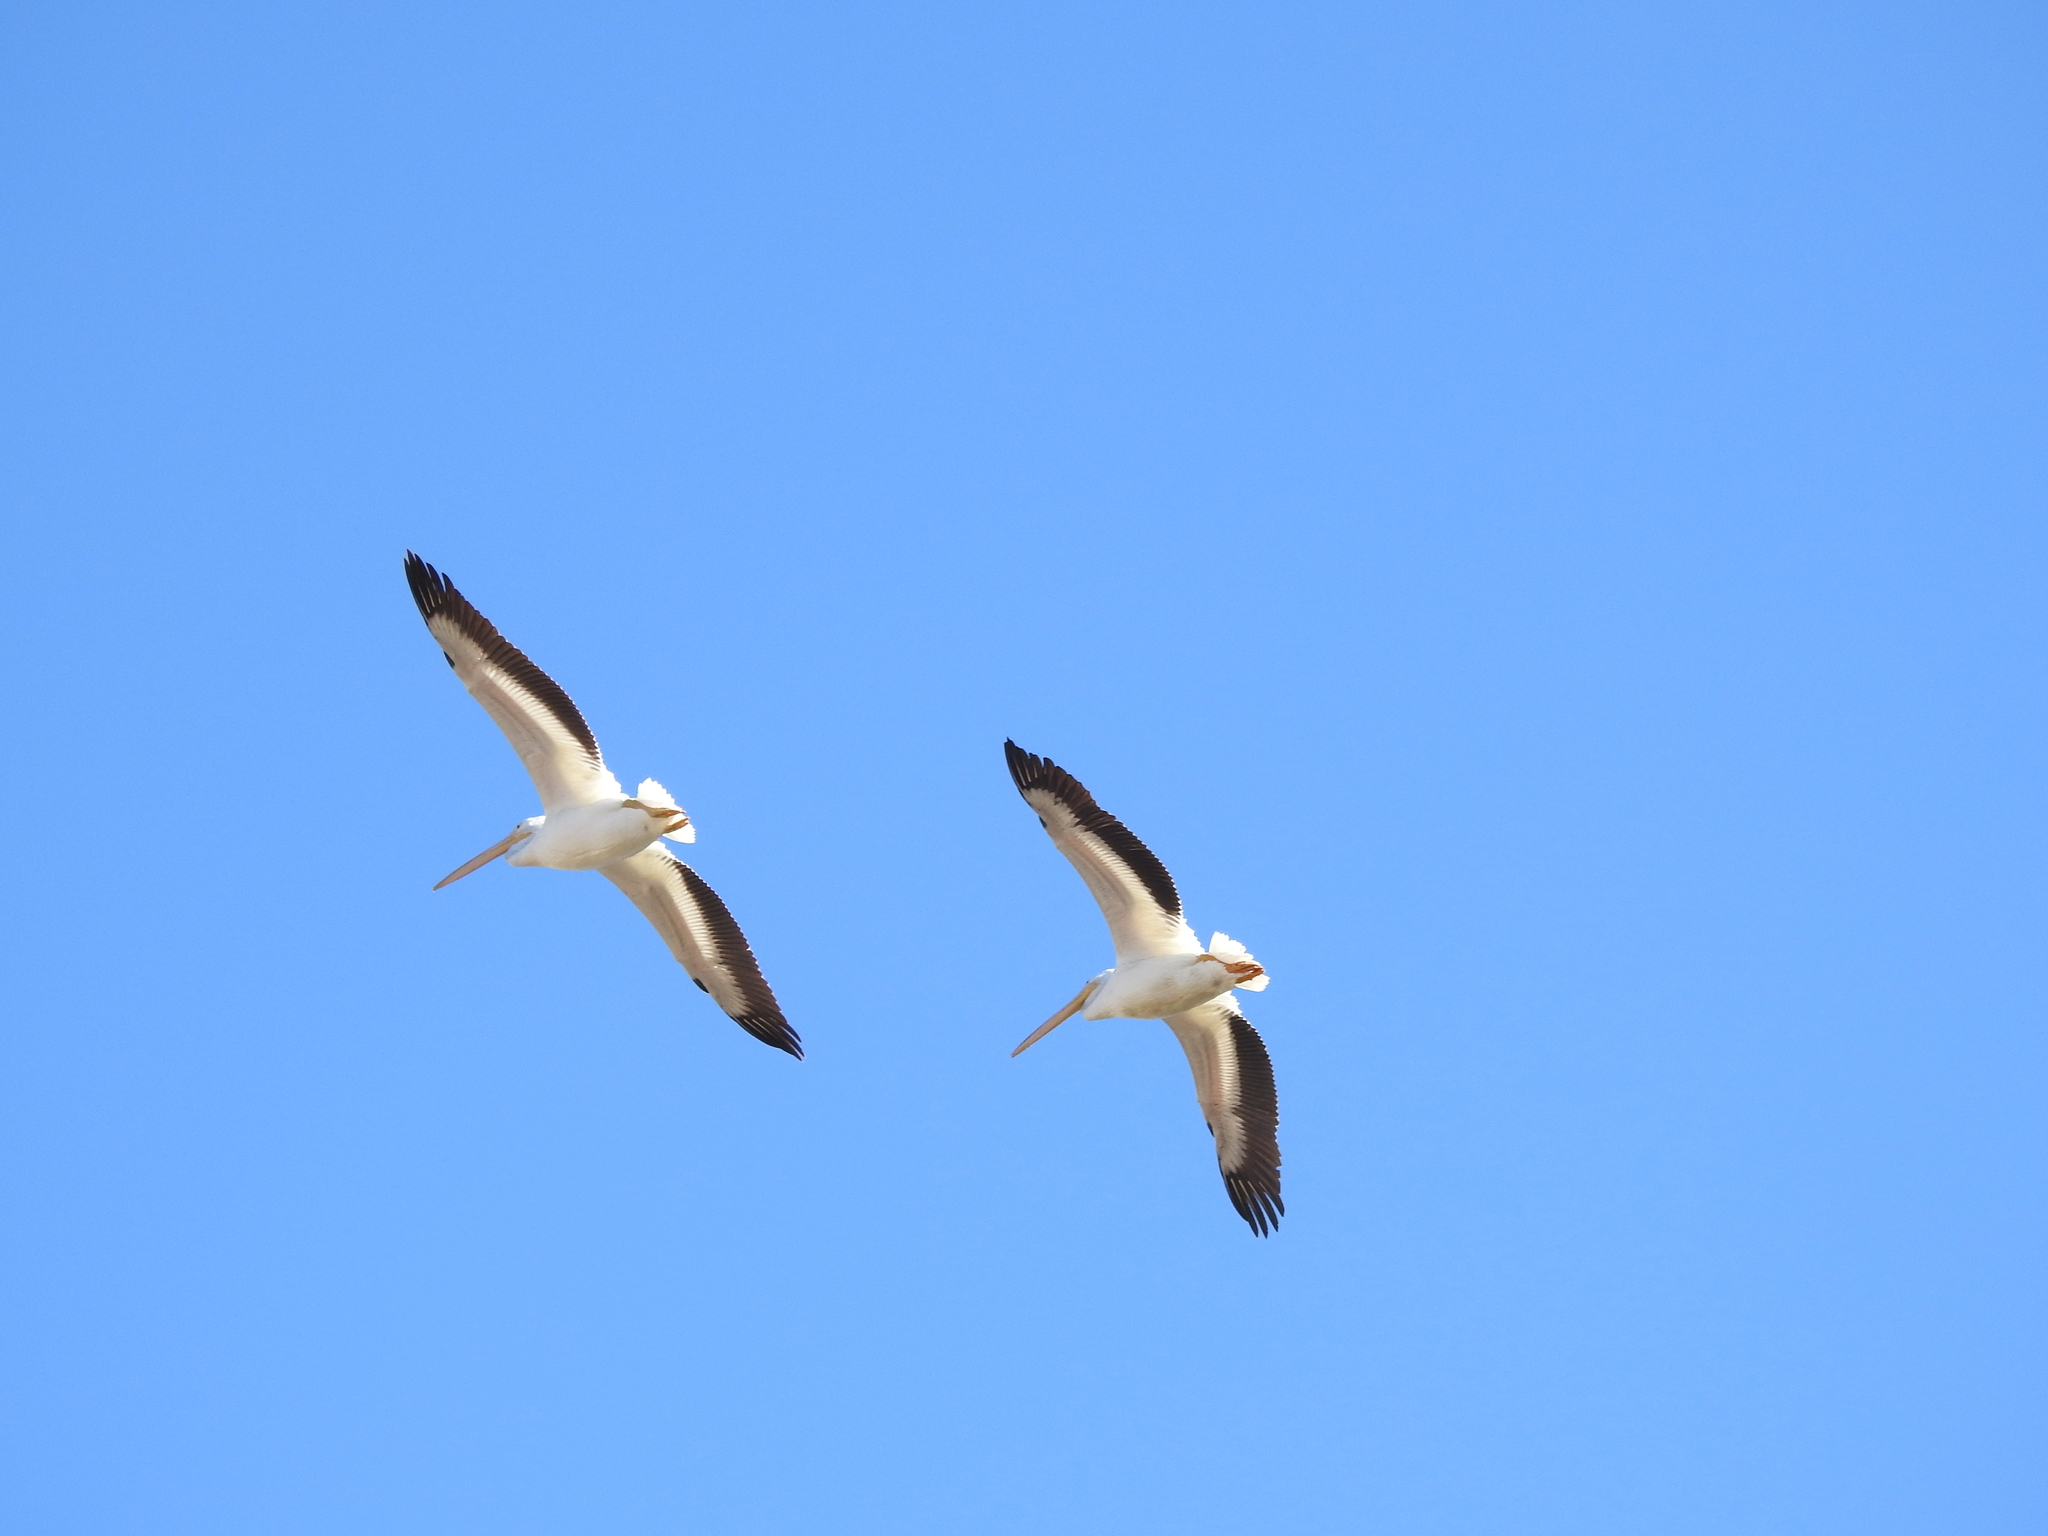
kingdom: Animalia
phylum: Chordata
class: Aves
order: Pelecaniformes
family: Pelecanidae
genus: Pelecanus
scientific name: Pelecanus erythrorhynchos
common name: American white pelican
